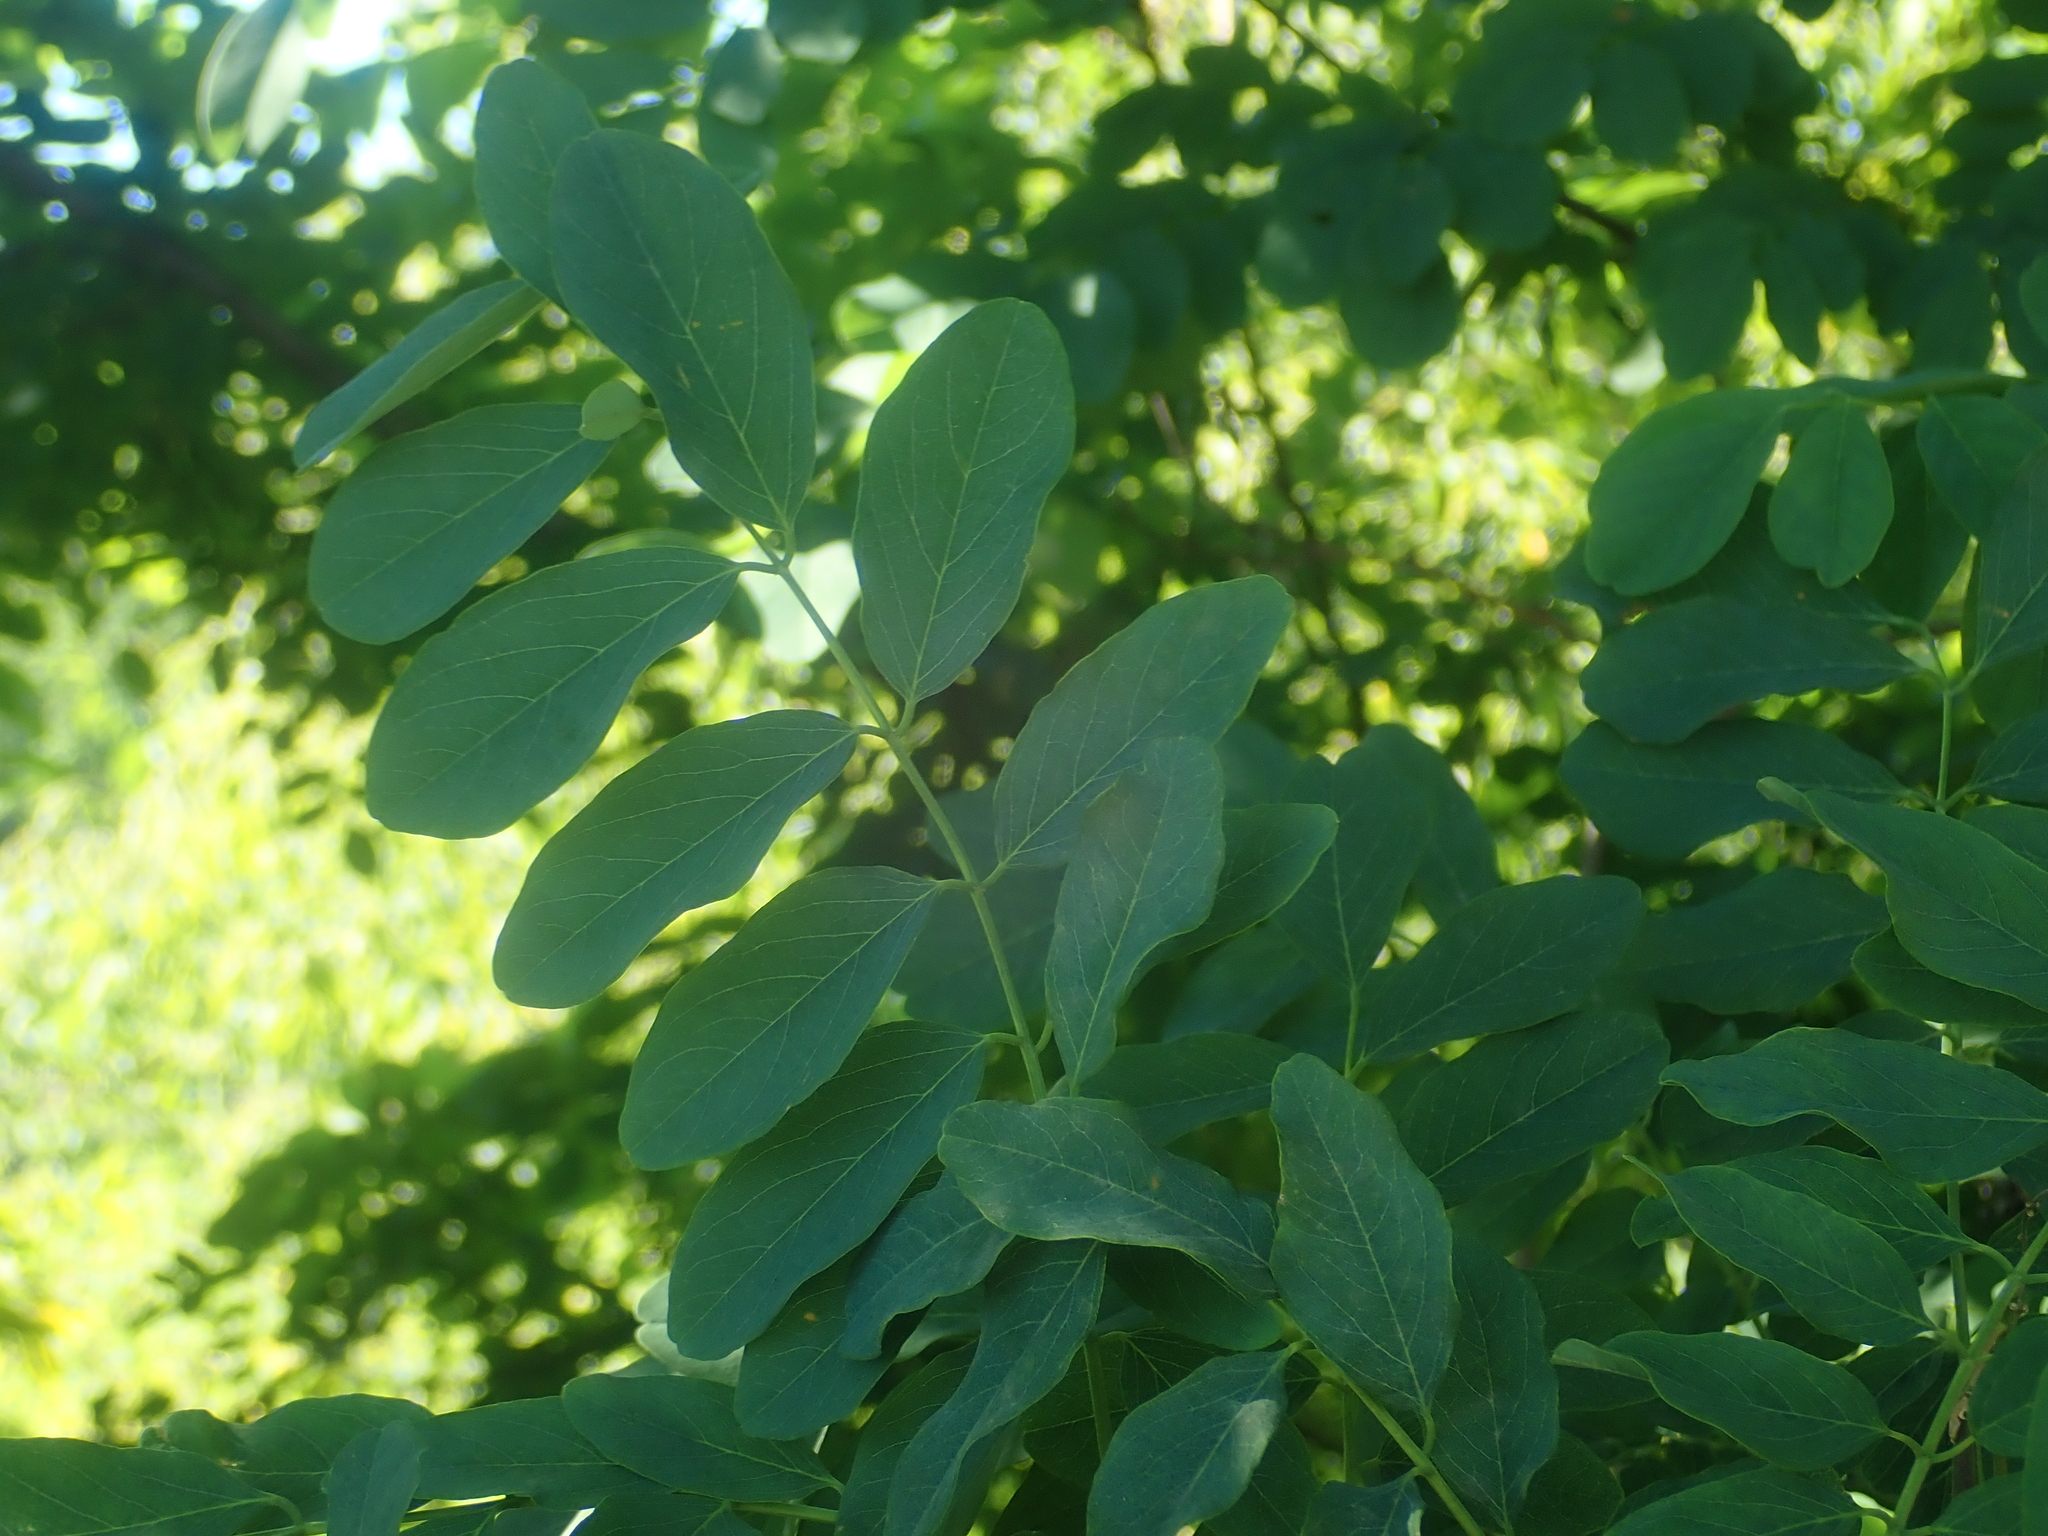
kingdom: Plantae
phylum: Tracheophyta
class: Magnoliopsida
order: Fabales
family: Fabaceae
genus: Robinia
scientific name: Robinia pseudoacacia
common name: Black locust
